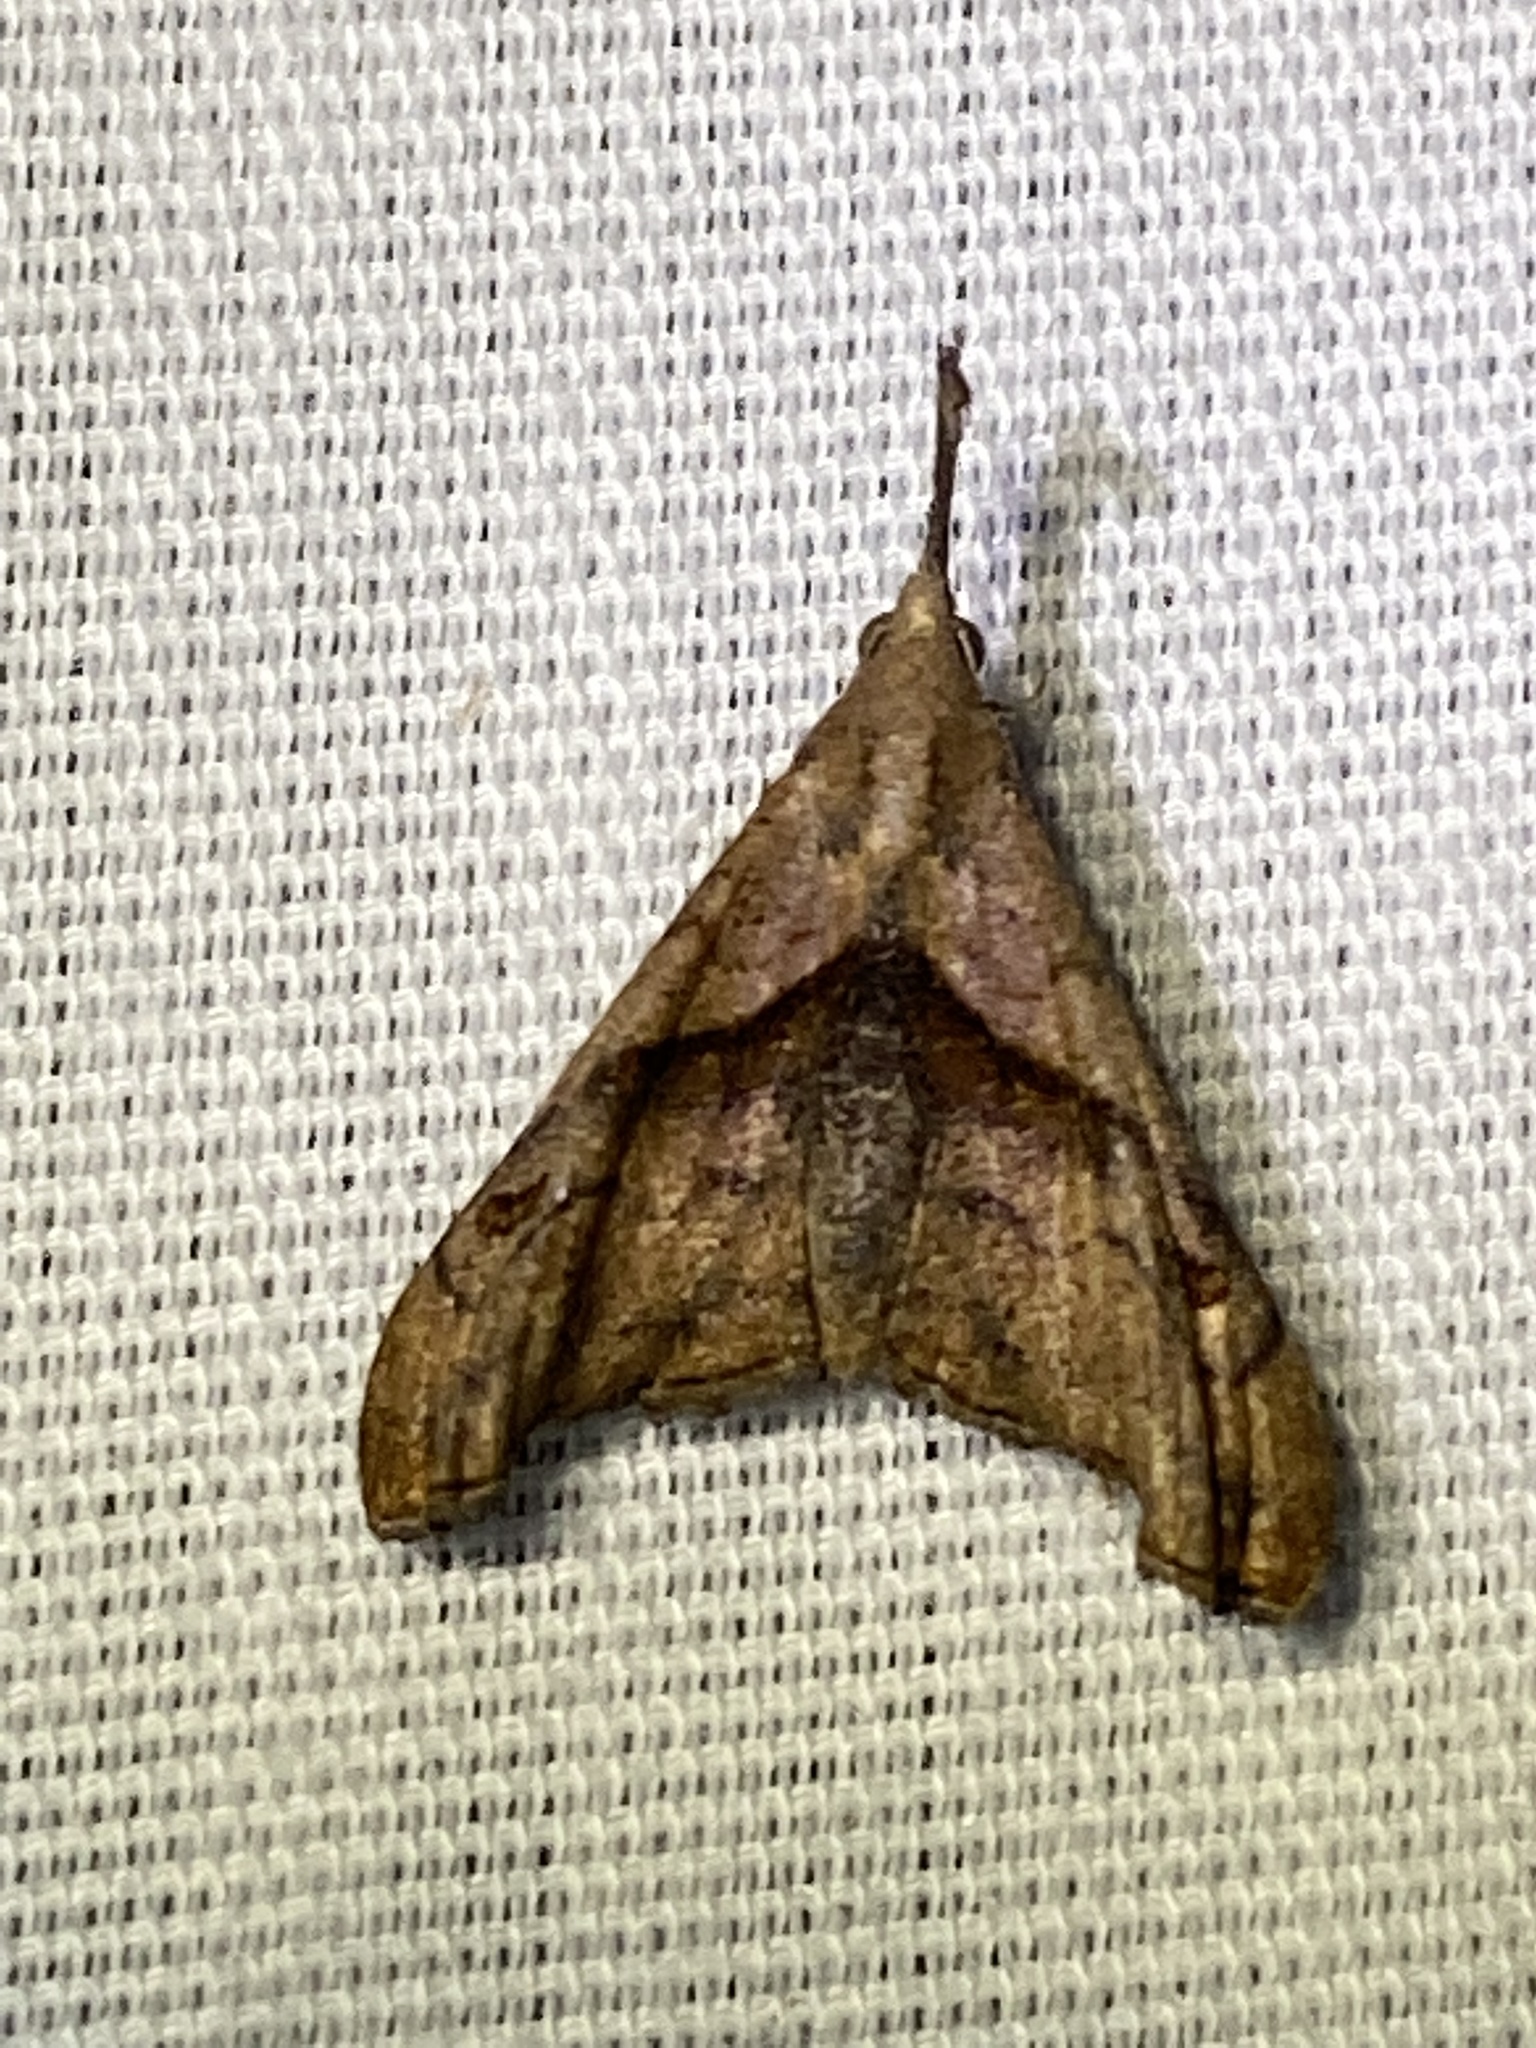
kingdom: Animalia
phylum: Arthropoda
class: Insecta
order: Lepidoptera
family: Erebidae
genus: Palthis
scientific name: Palthis angulalis
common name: Dark-spotted palthis moth
